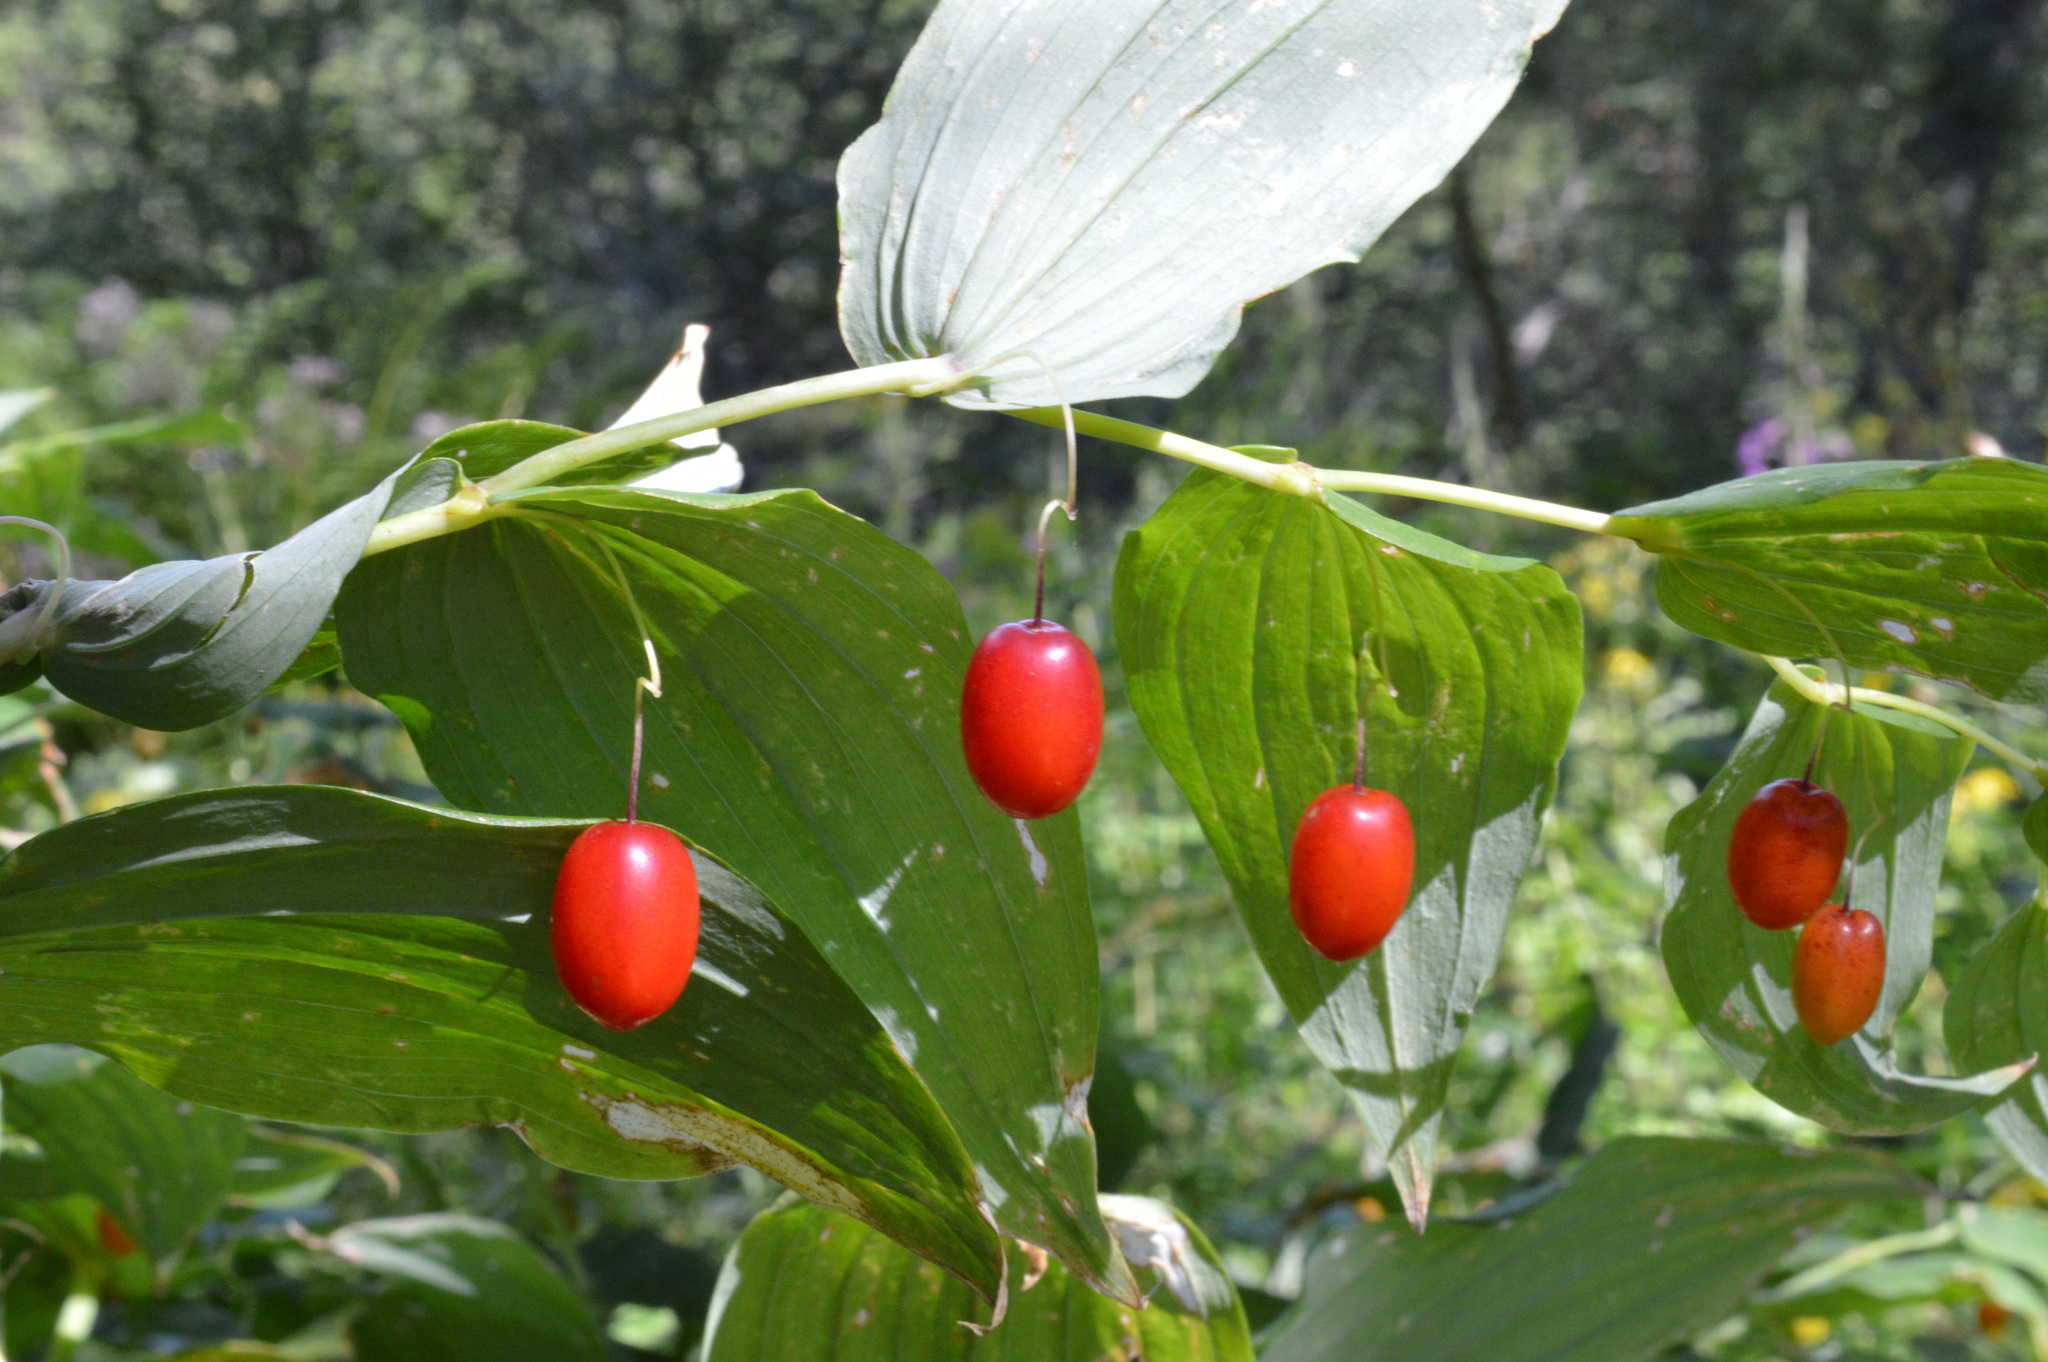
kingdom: Plantae
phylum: Tracheophyta
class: Liliopsida
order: Liliales
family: Liliaceae
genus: Streptopus
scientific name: Streptopus amplexifolius
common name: Clasp twisted stalk
